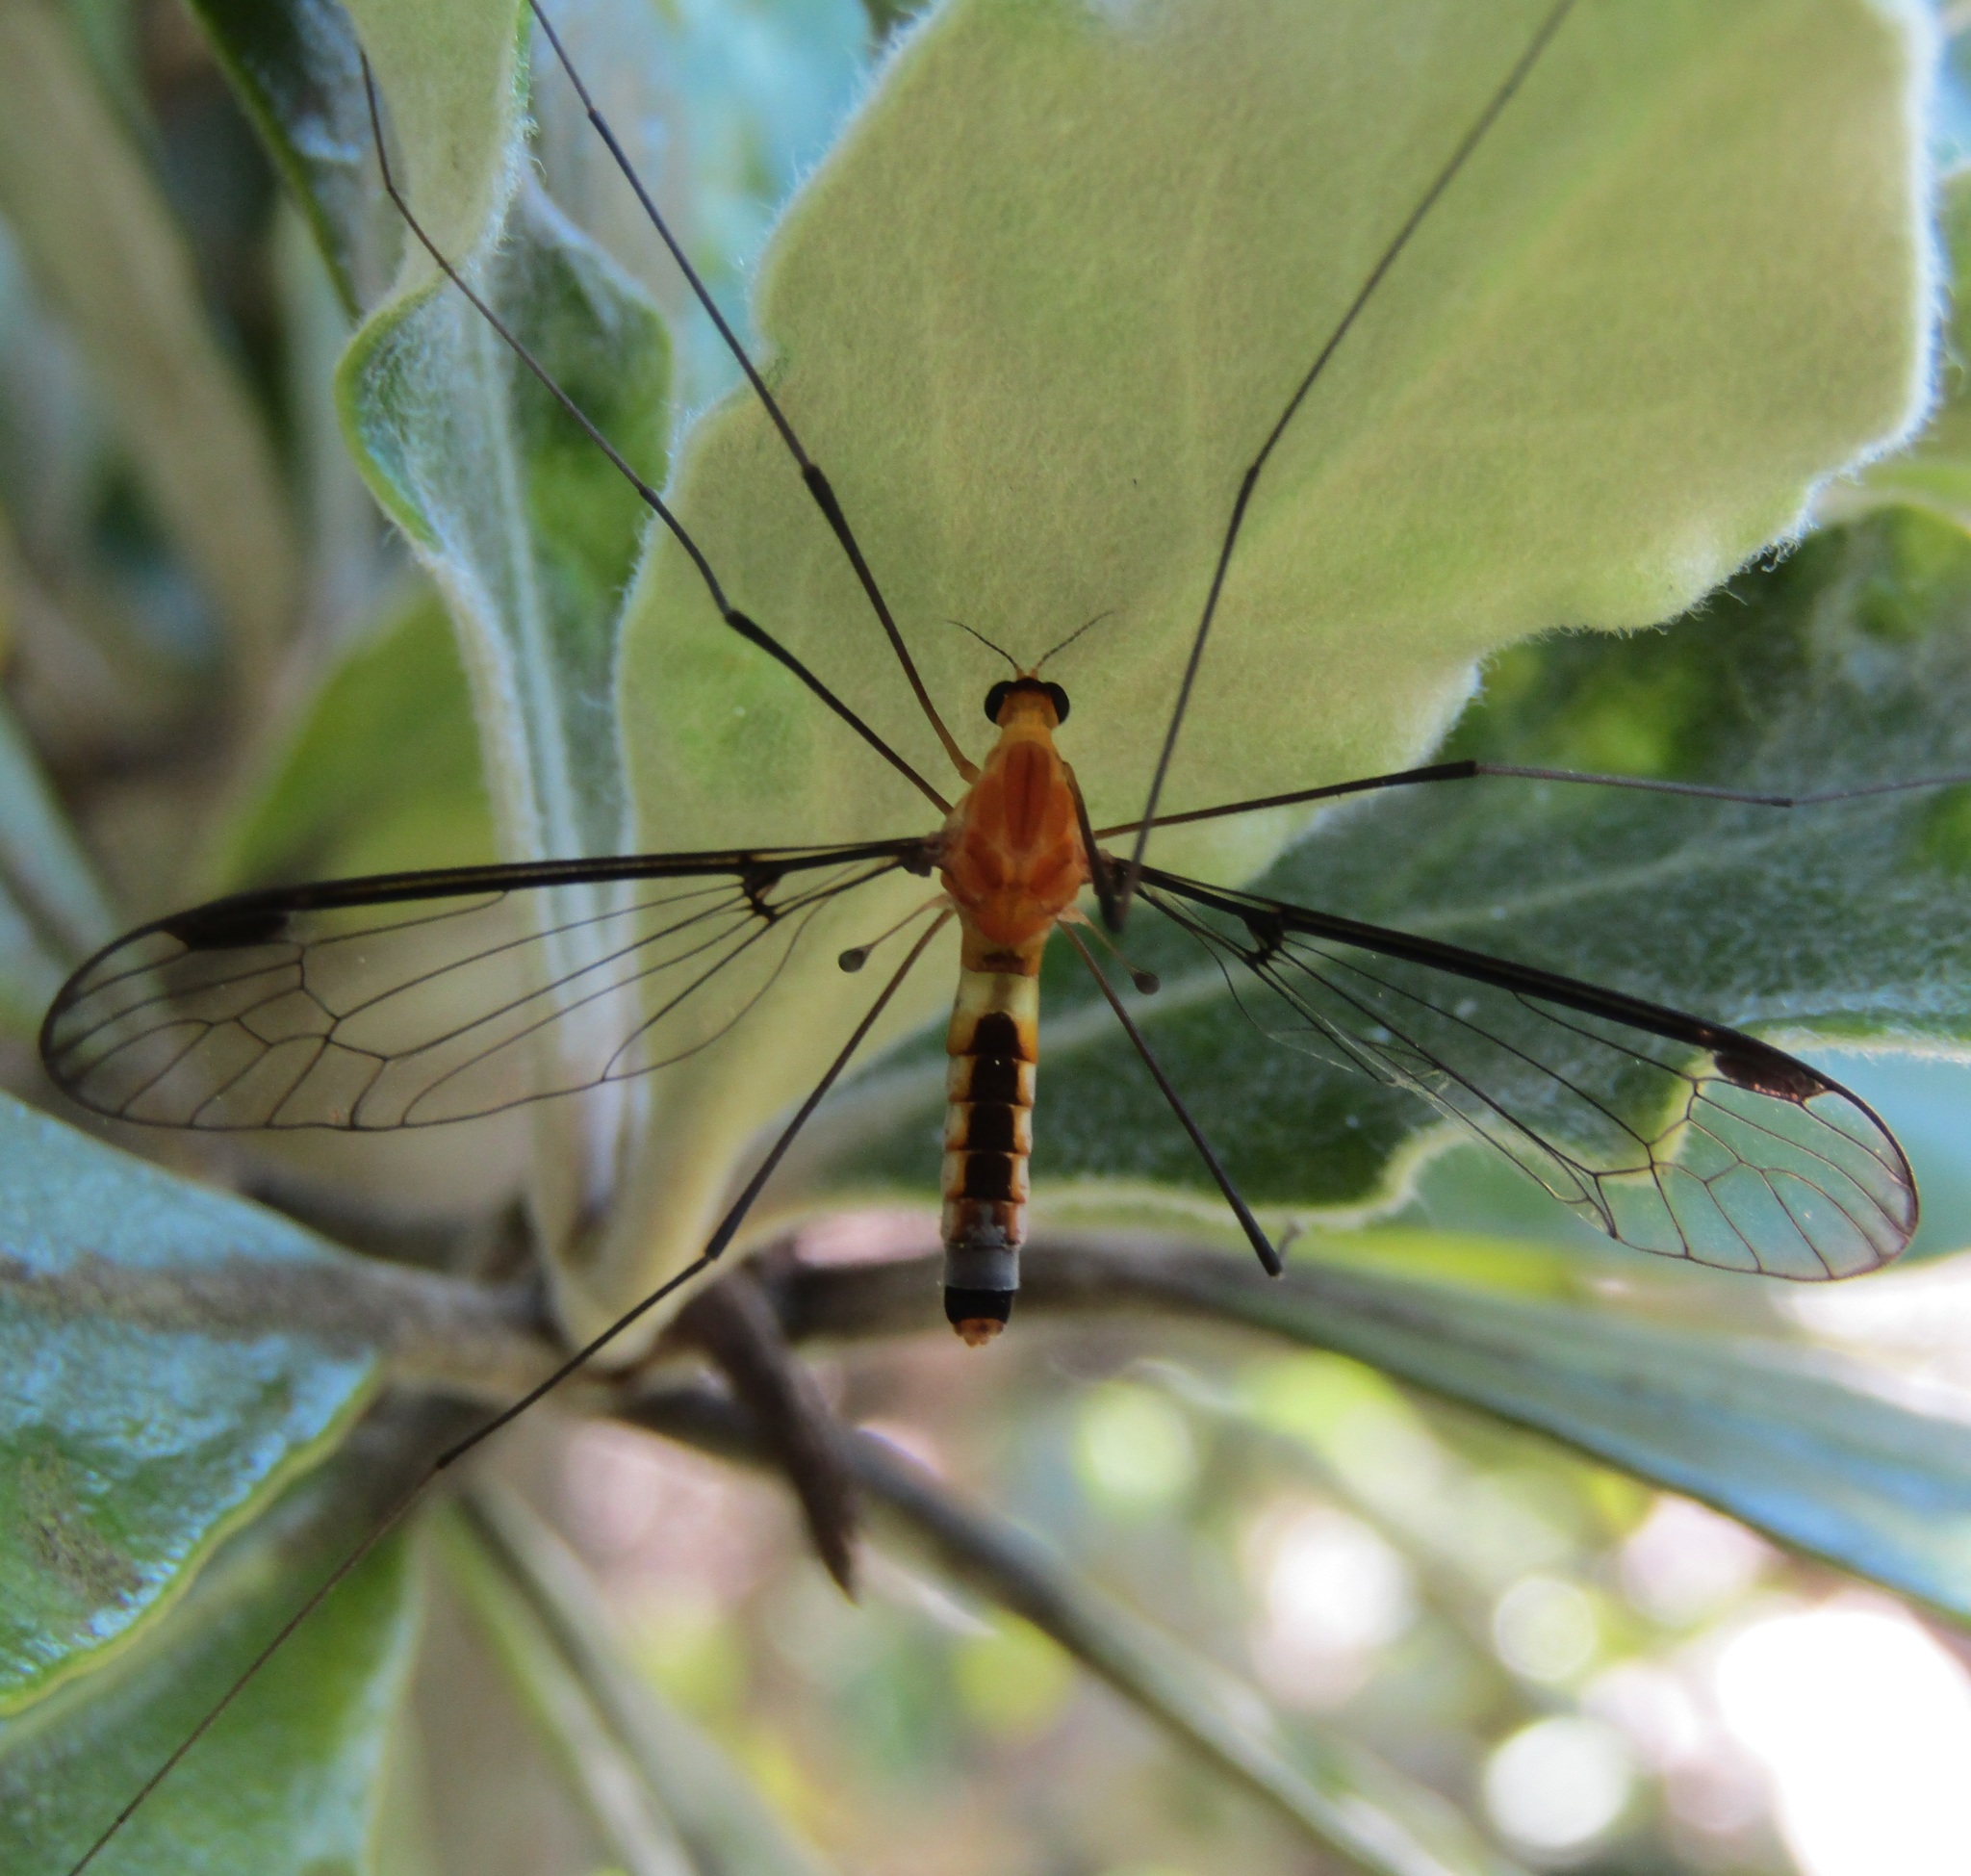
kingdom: Animalia
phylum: Arthropoda
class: Insecta
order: Diptera
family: Tipulidae
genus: Aurotipula
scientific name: Aurotipula
